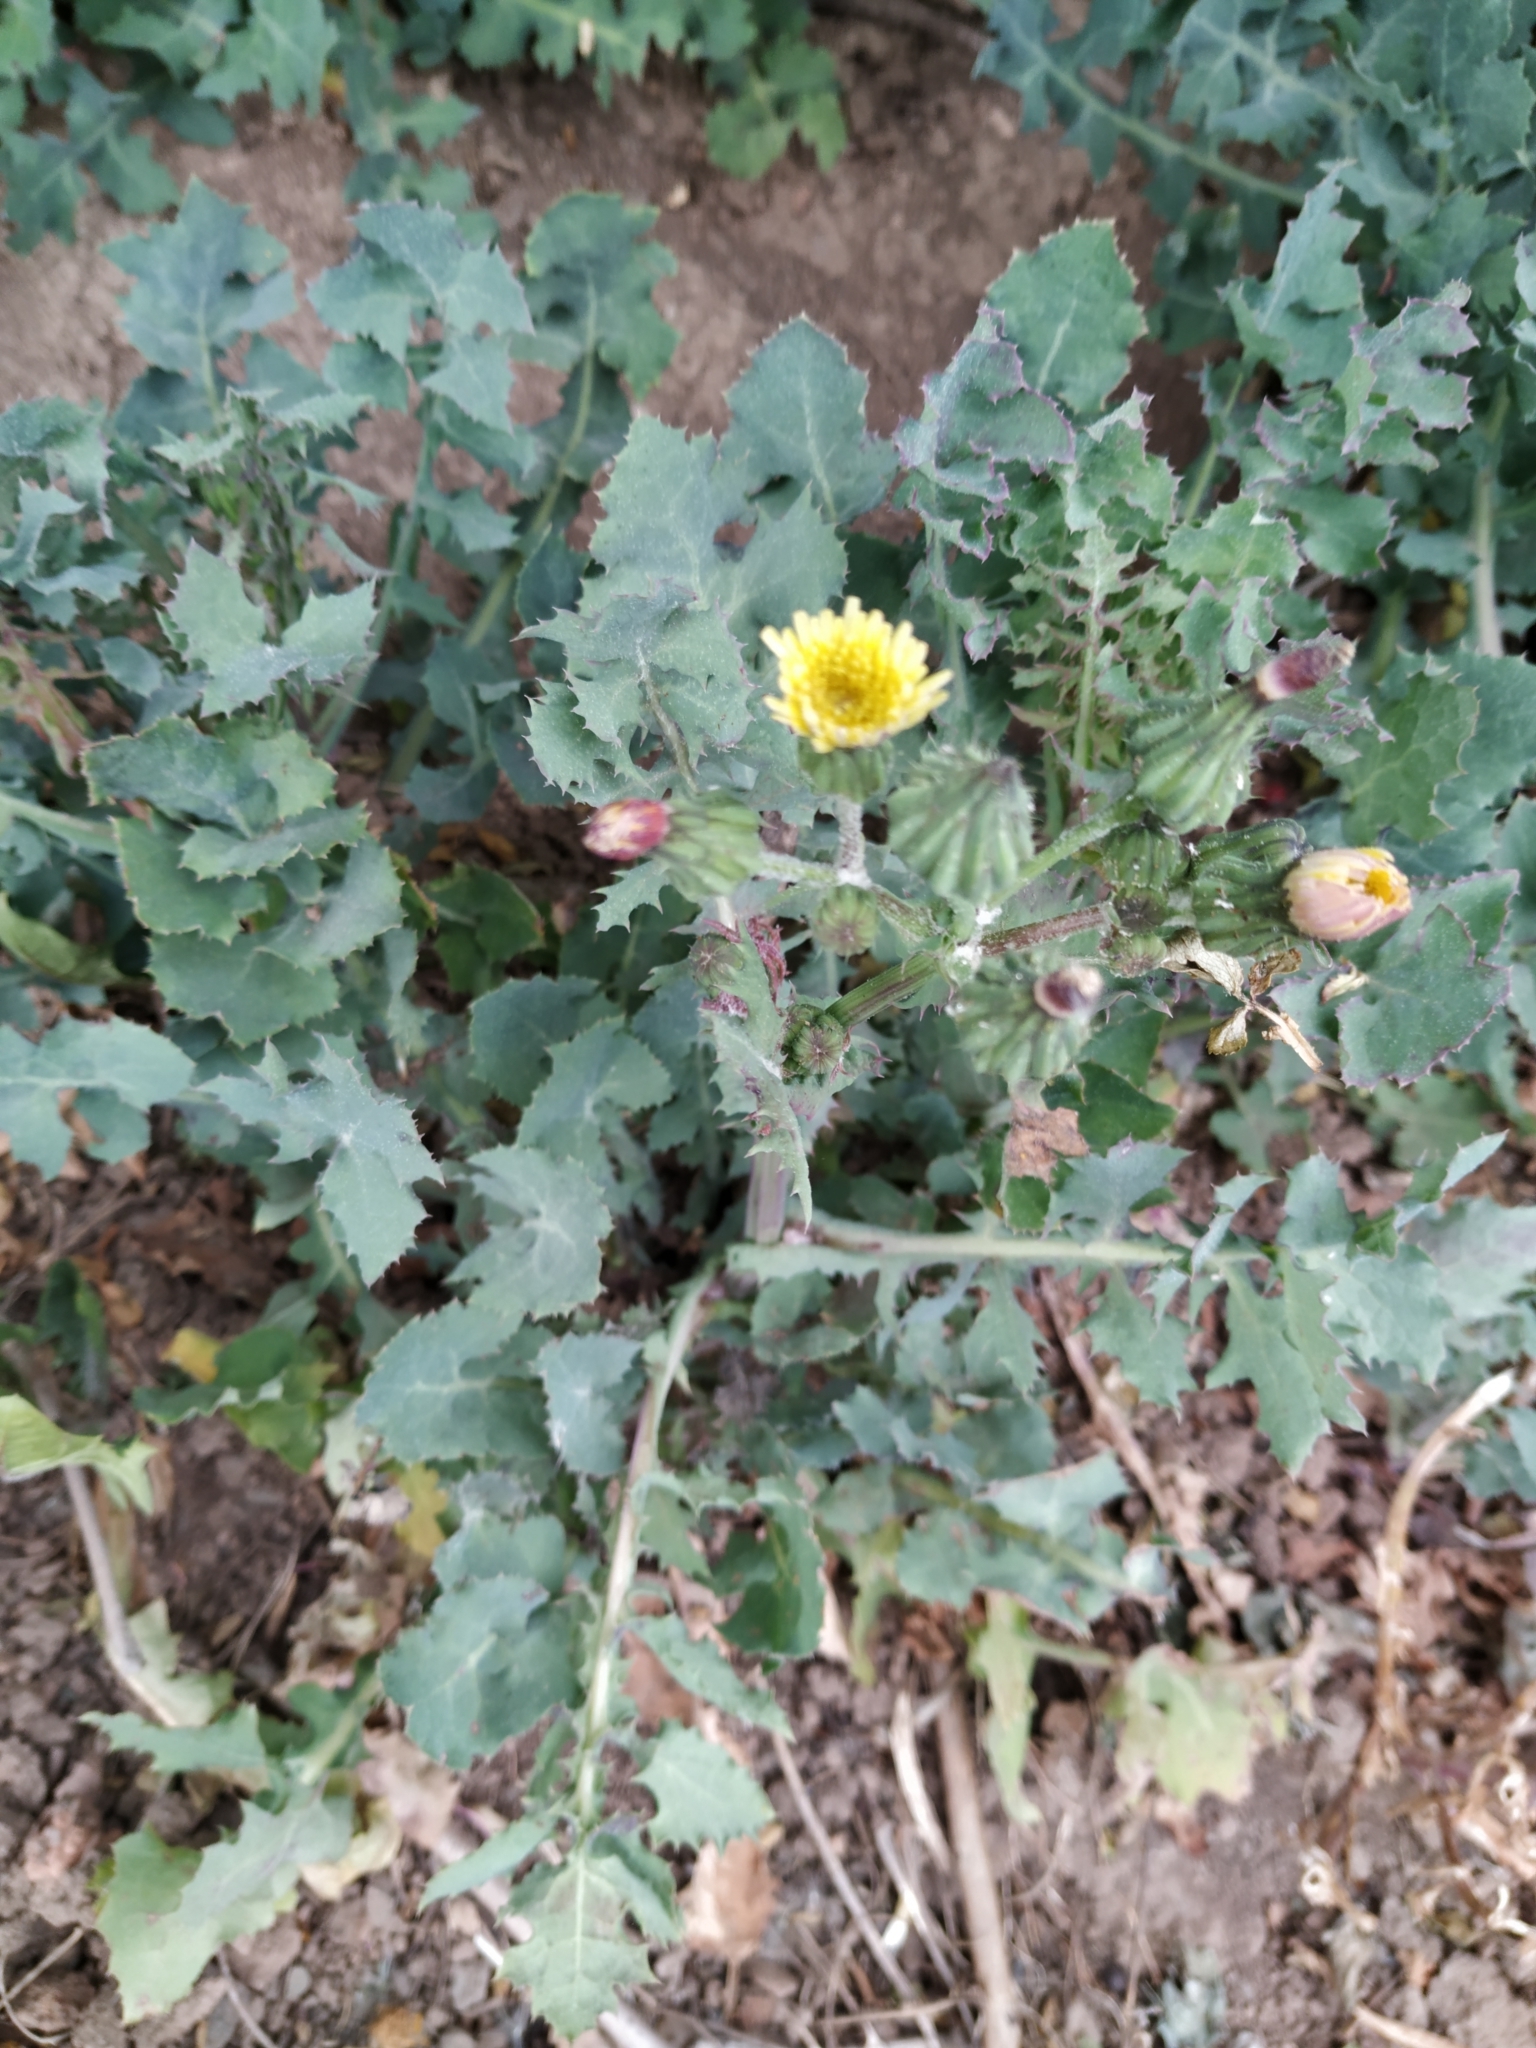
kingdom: Plantae
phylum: Tracheophyta
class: Magnoliopsida
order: Asterales
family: Asteraceae
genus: Sonchus
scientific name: Sonchus oleraceus
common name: Common sowthistle
